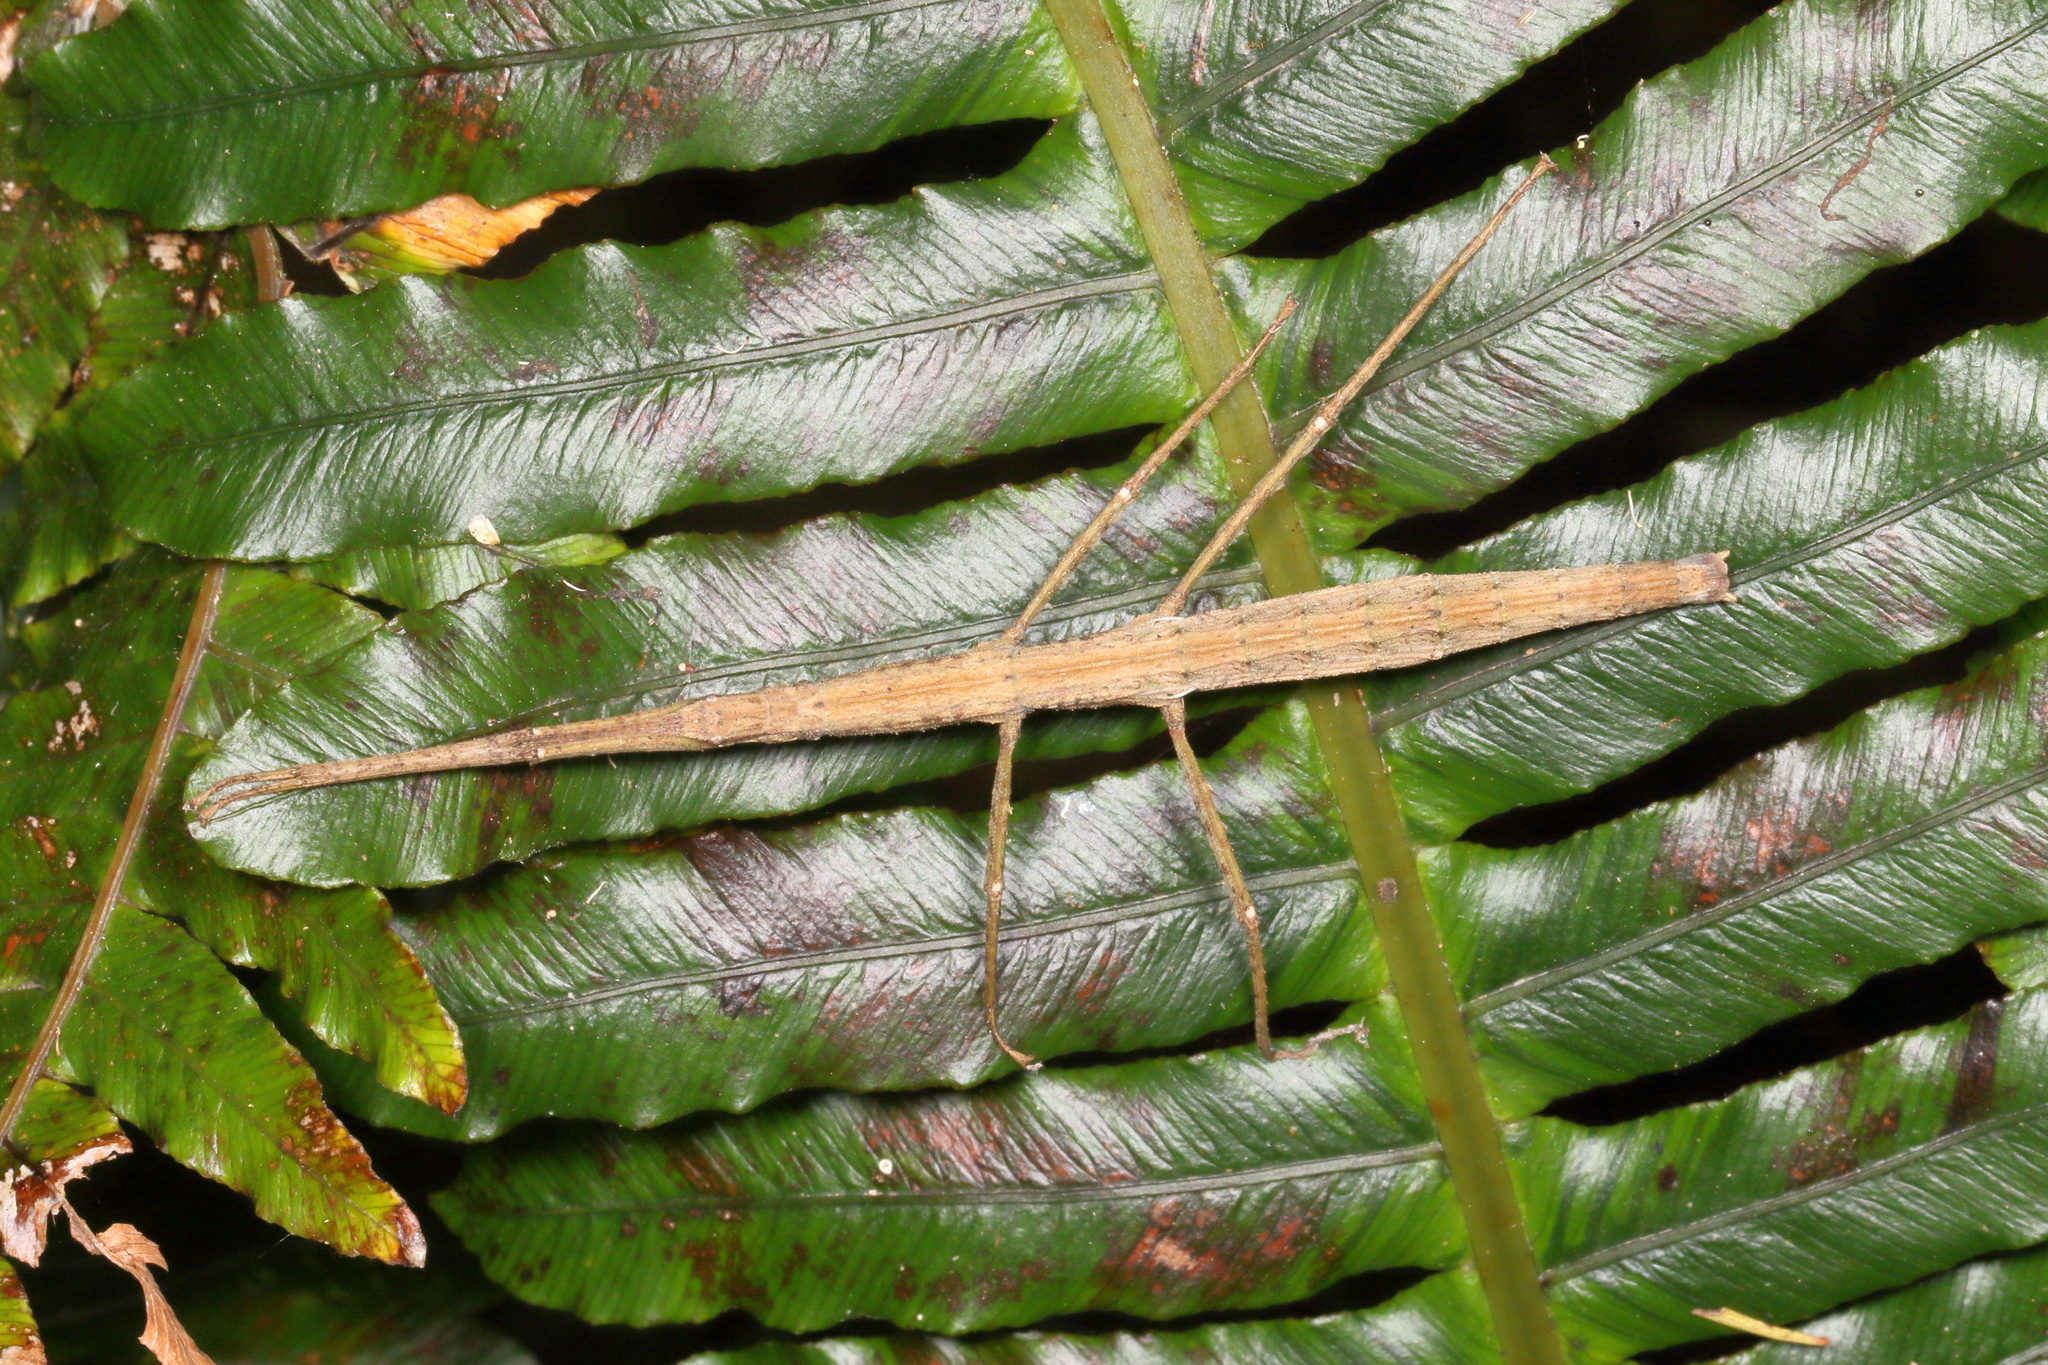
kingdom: Animalia
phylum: Arthropoda
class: Insecta
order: Phasmida
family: Phasmatidae
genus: Tectarchus
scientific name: Tectarchus salebrosus
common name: Lesser rough-skinned stick insect
